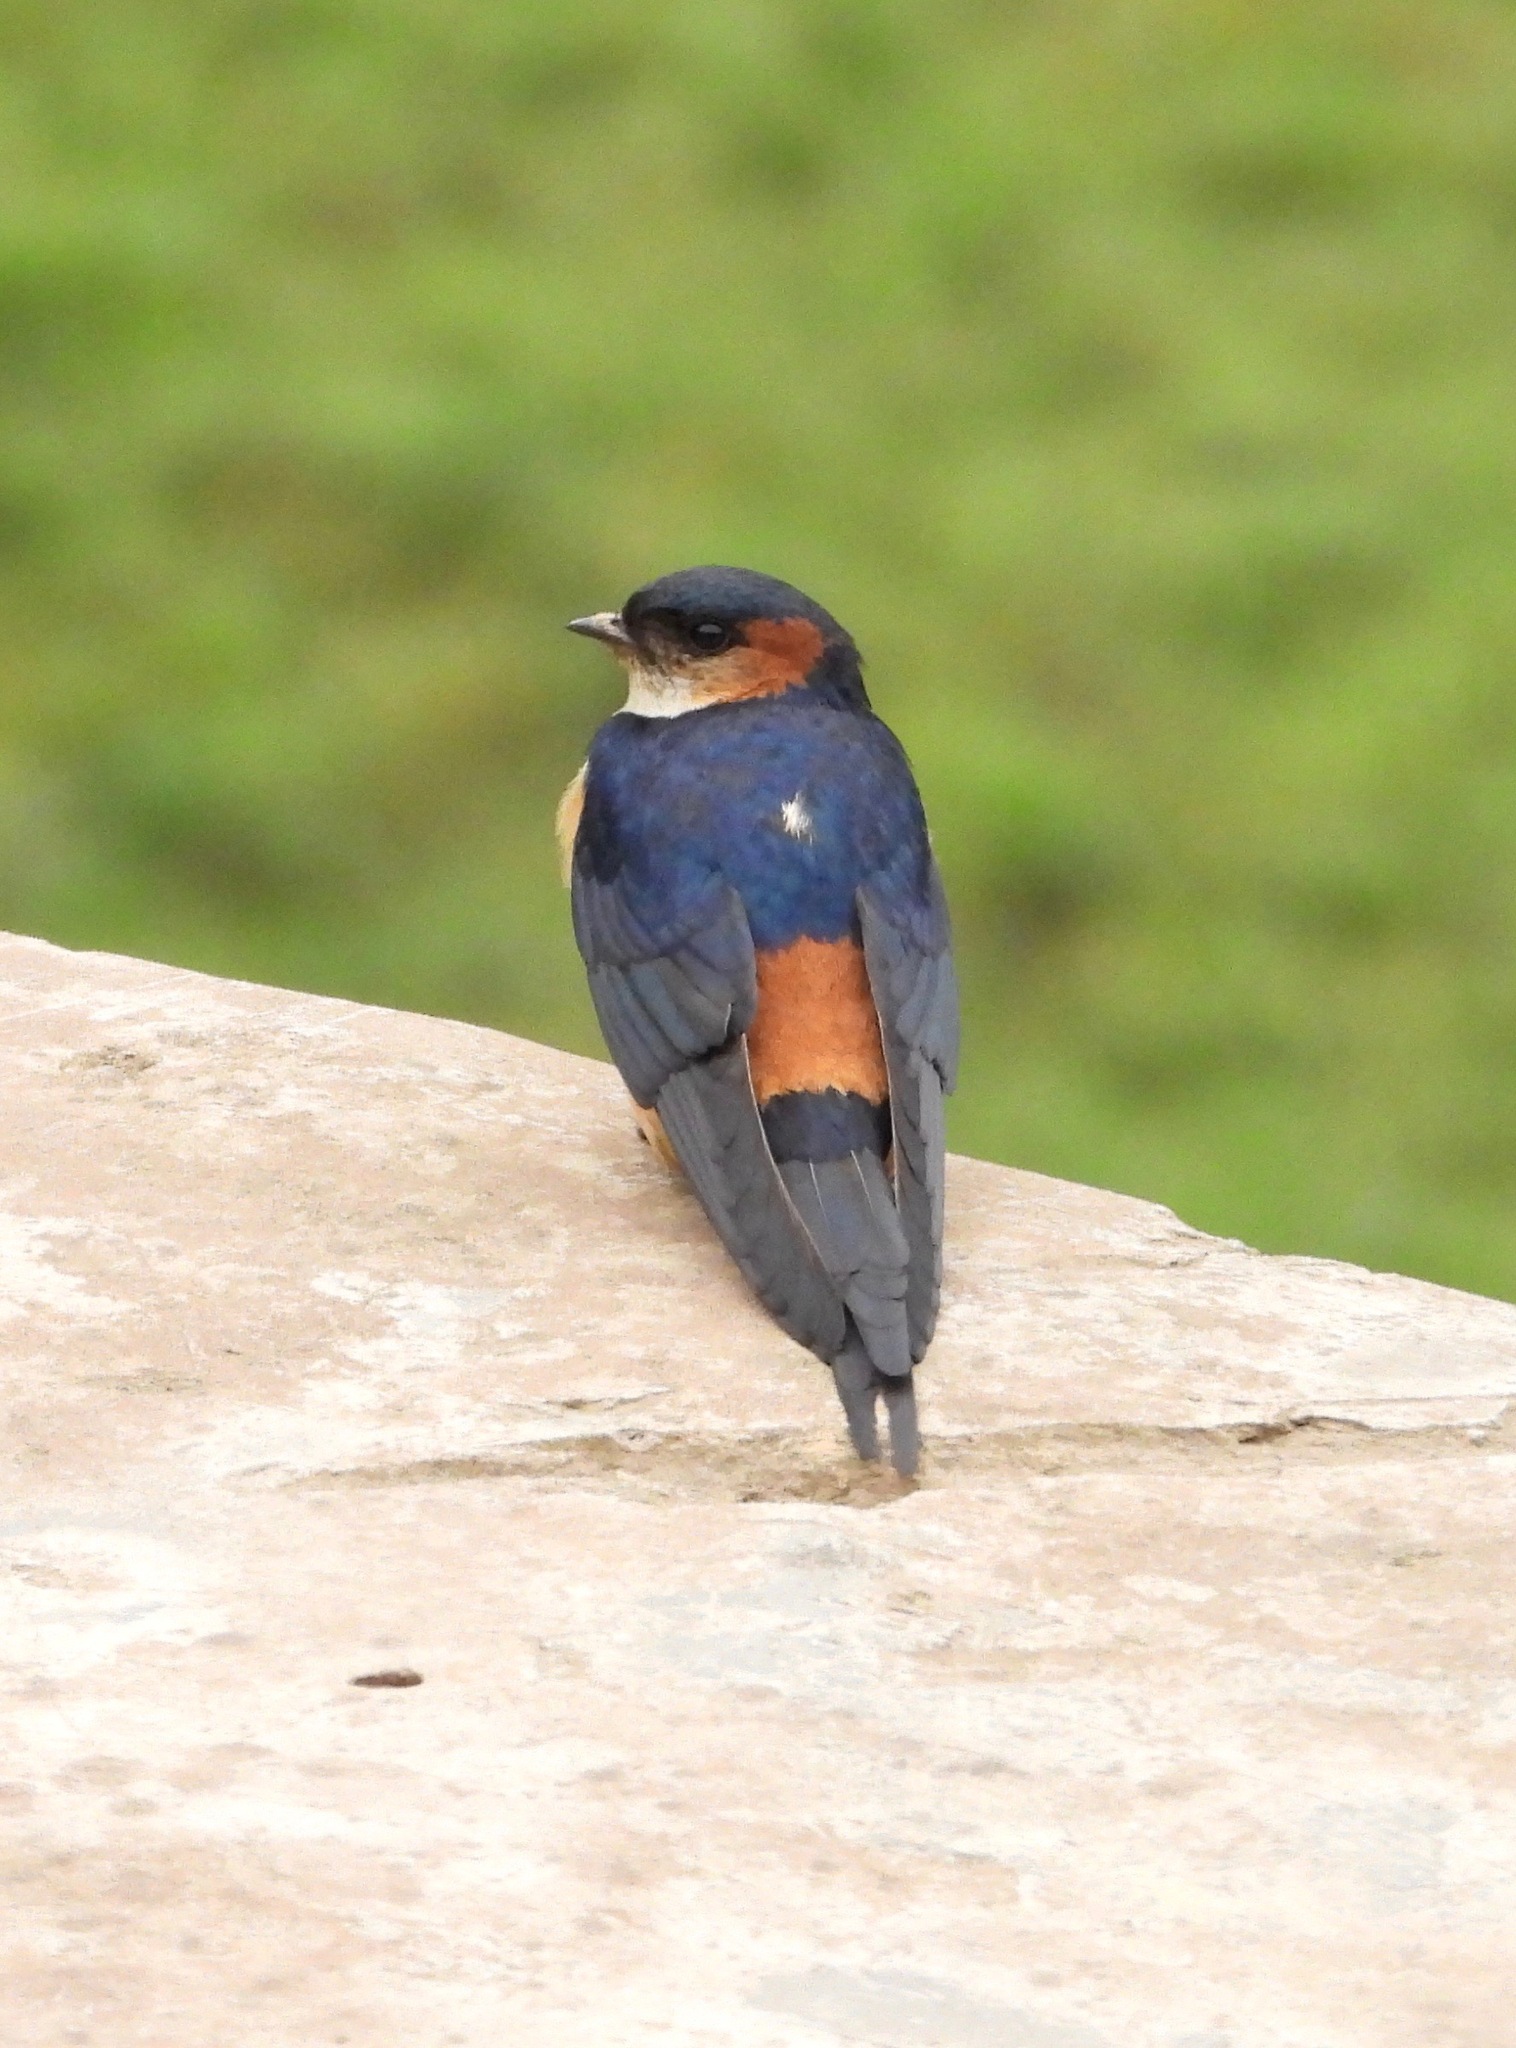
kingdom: Animalia
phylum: Chordata
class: Aves
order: Passeriformes
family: Hirundinidae
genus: Cecropis
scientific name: Cecropis daurica
